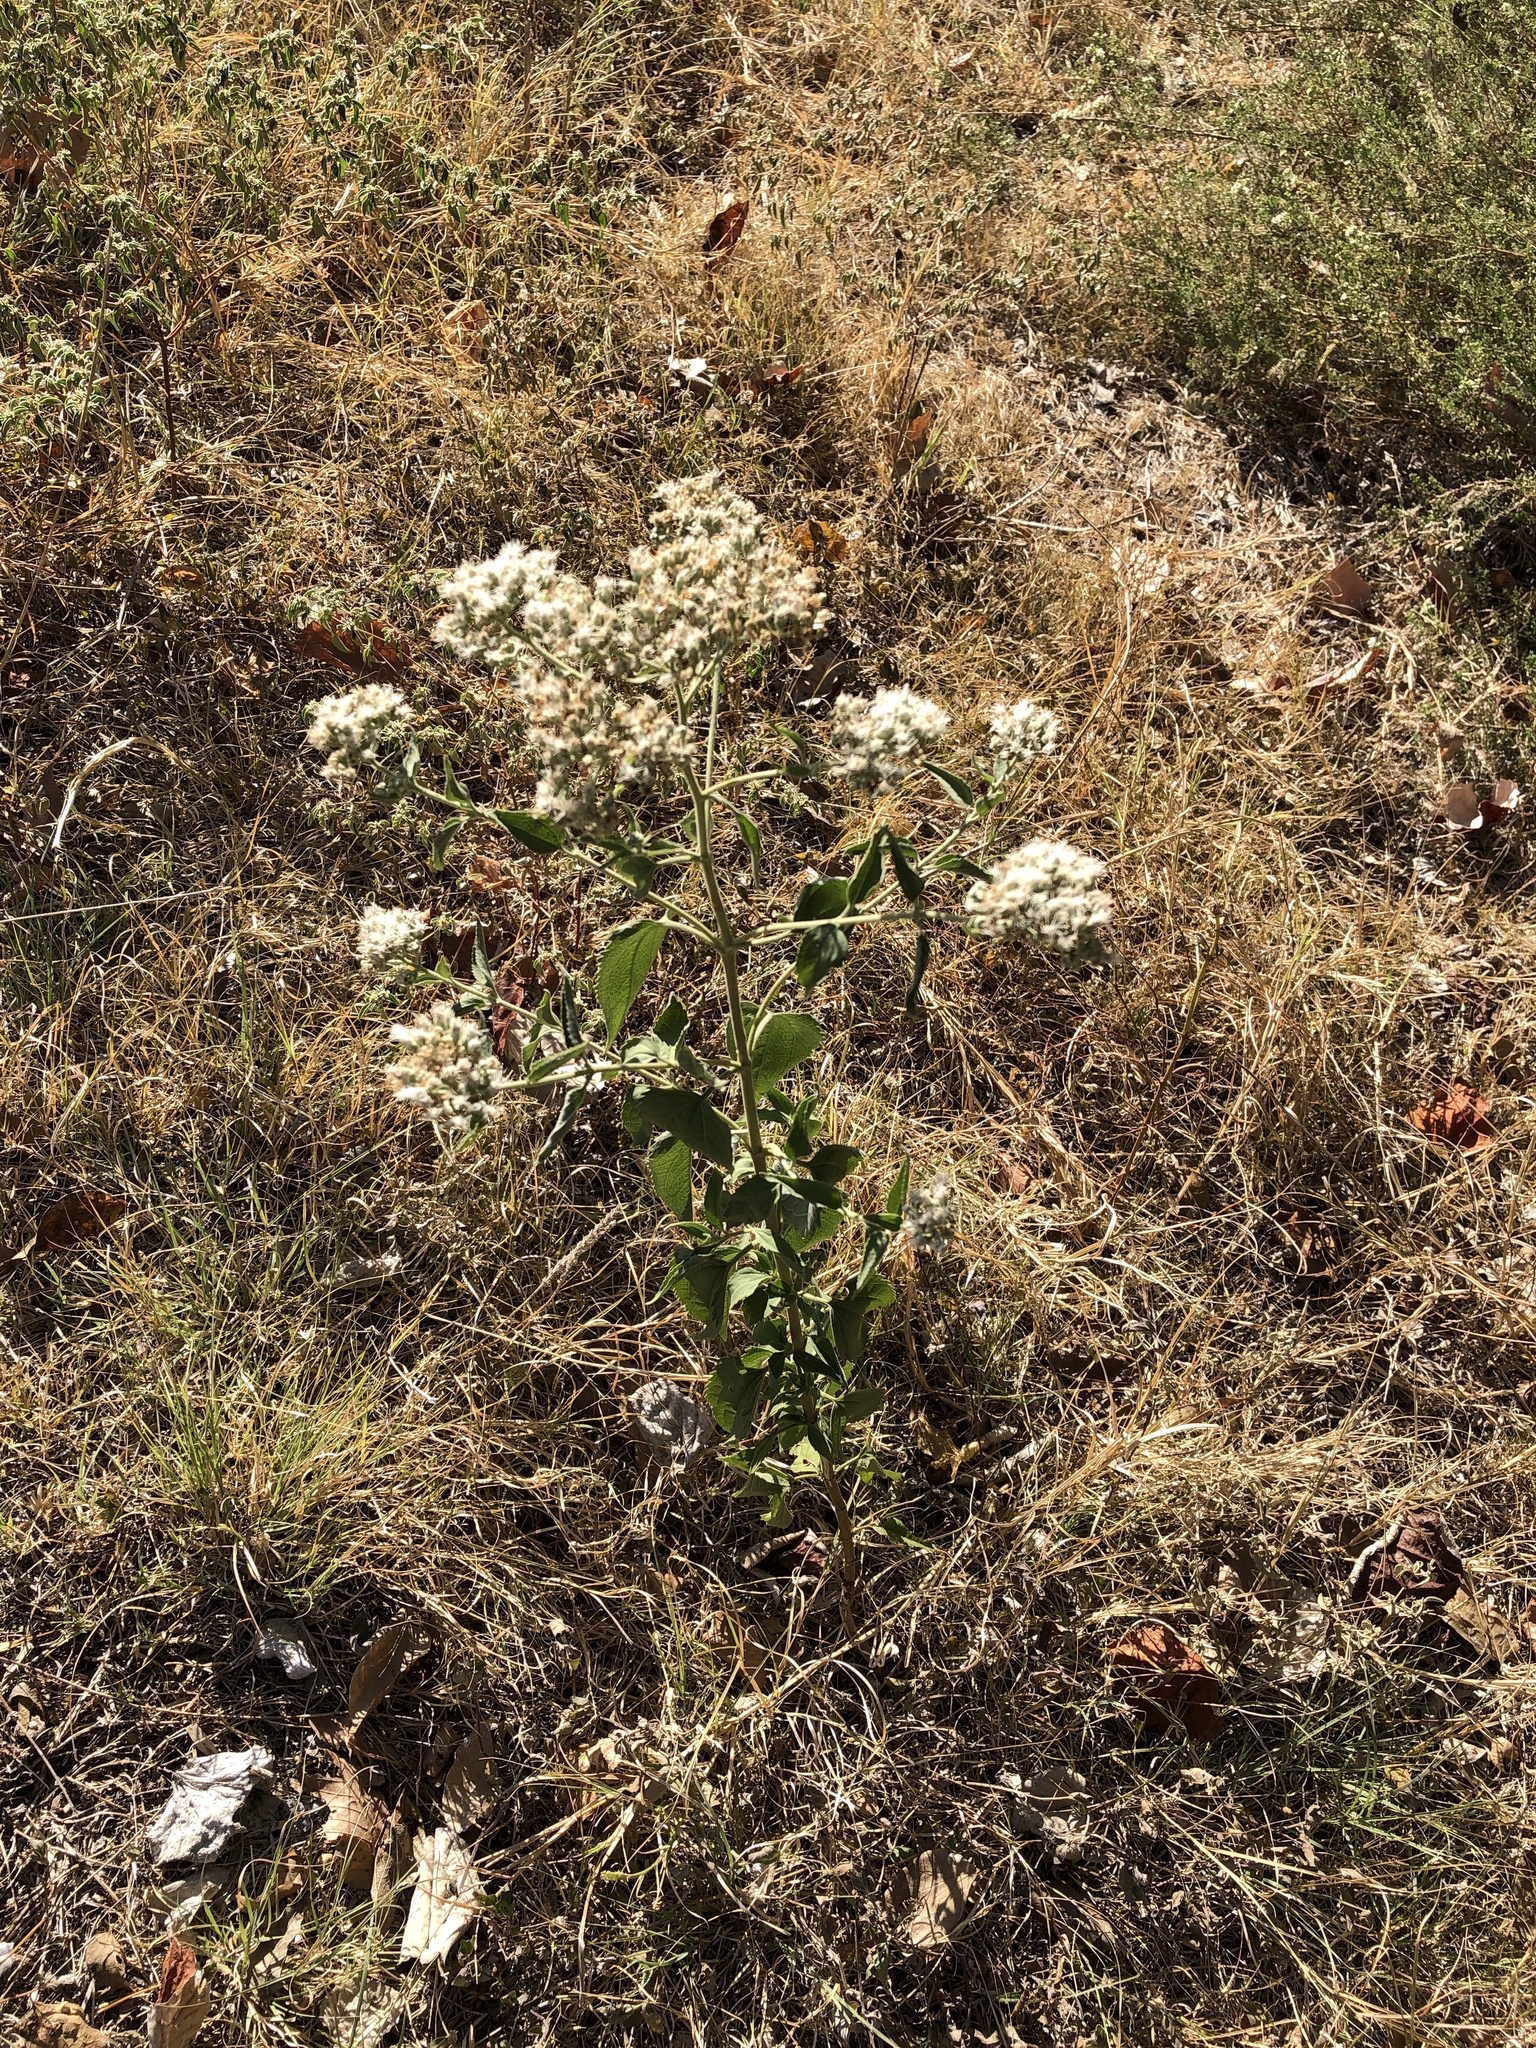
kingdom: Plantae
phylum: Tracheophyta
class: Magnoliopsida
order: Asterales
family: Asteraceae
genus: Eupatorium
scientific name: Eupatorium serotinum
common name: Late boneset
